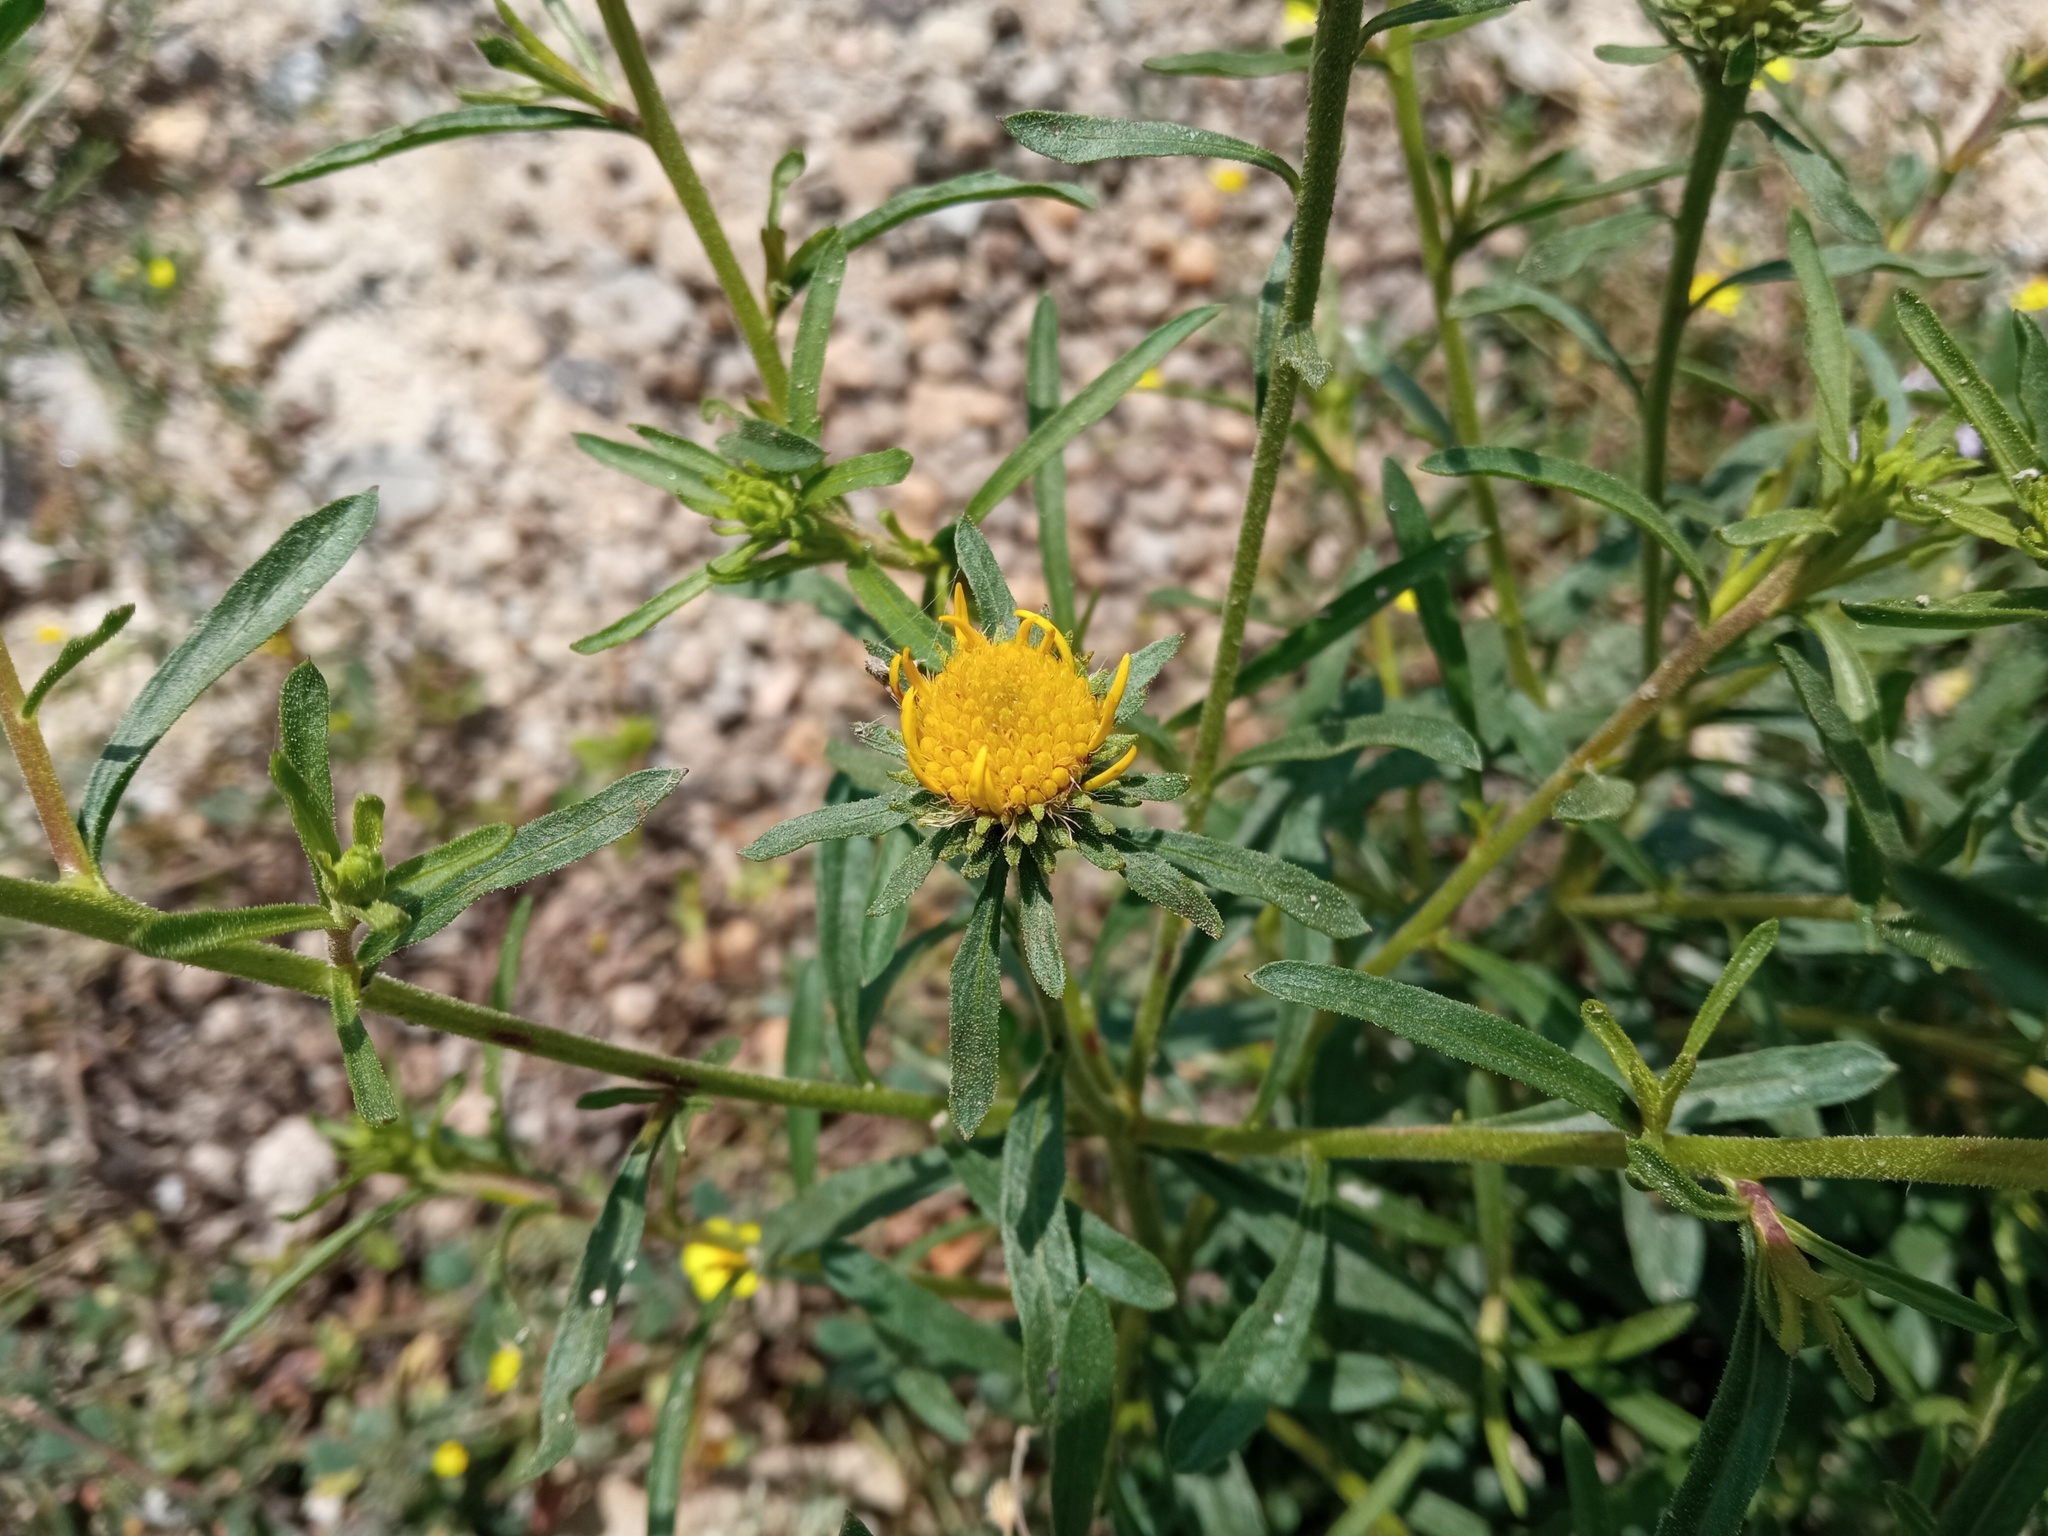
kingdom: Plantae
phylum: Tracheophyta
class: Magnoliopsida
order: Asterales
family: Asteraceae
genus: Jasonia
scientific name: Jasonia tuberosa
